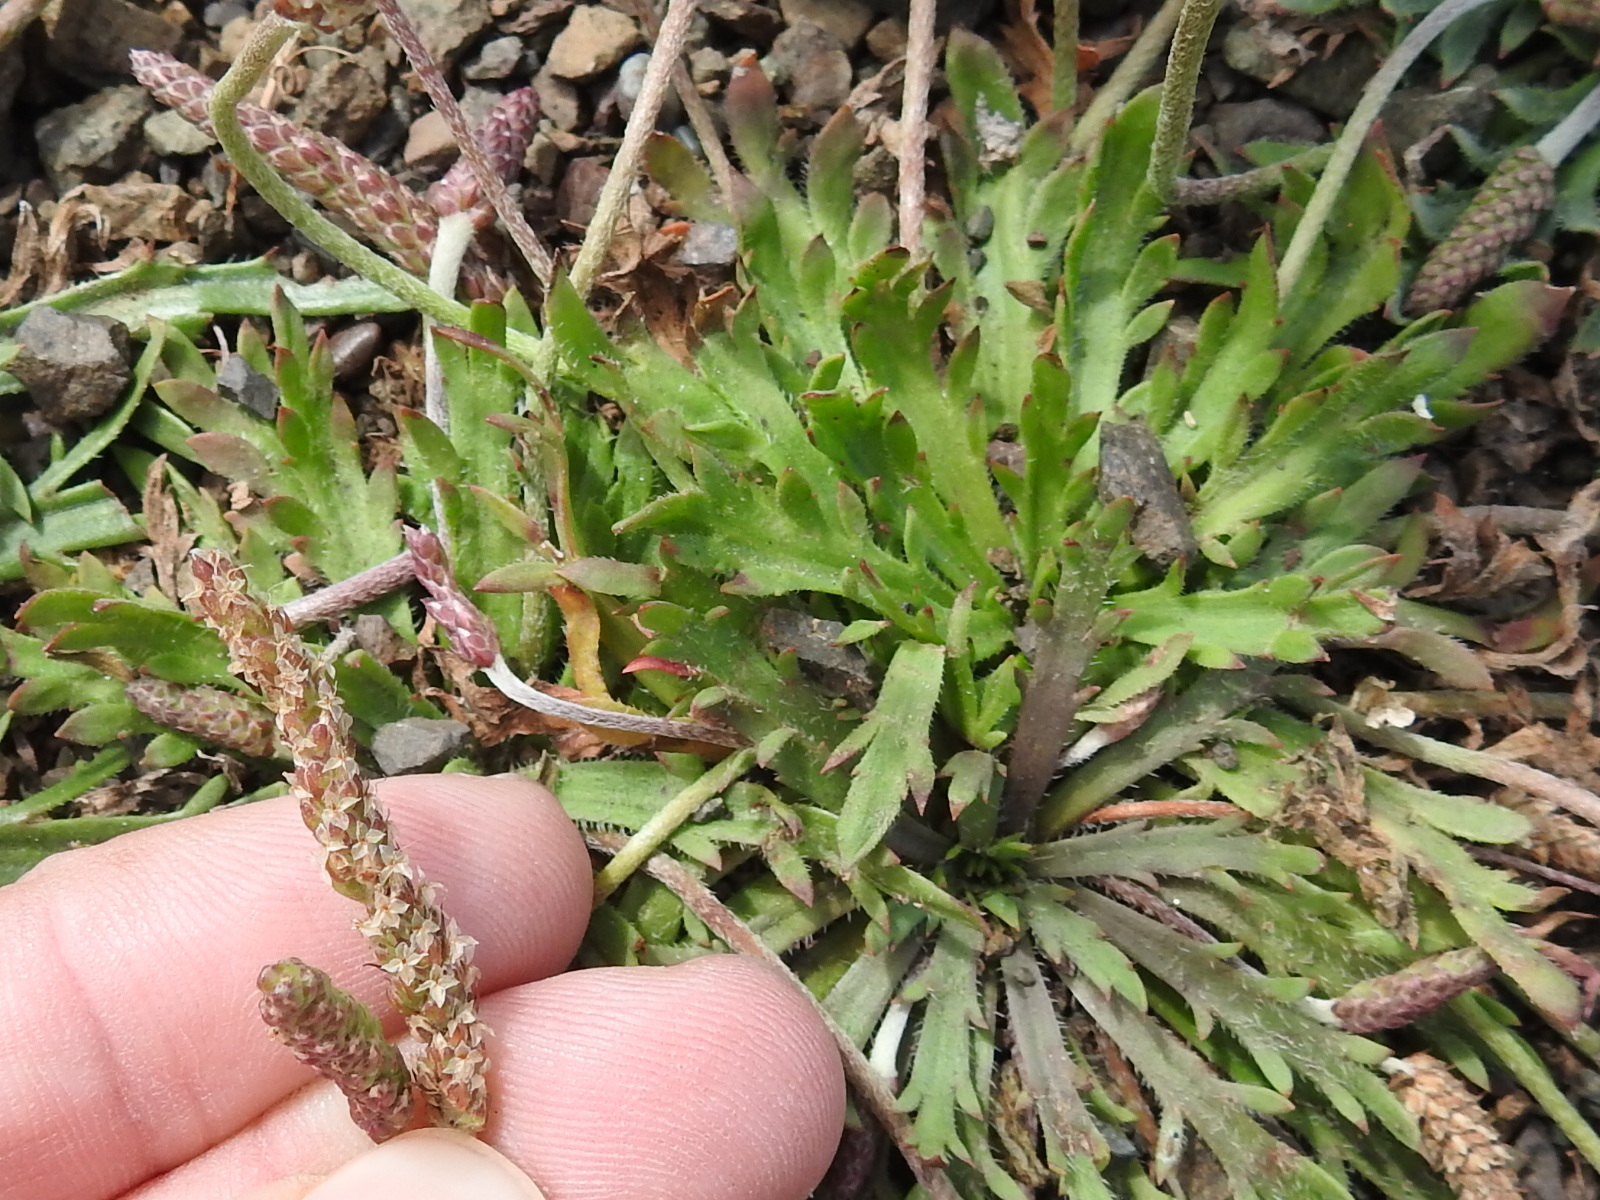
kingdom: Plantae
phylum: Tracheophyta
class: Magnoliopsida
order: Lamiales
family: Plantaginaceae
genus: Plantago
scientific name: Plantago coronopus
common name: Buck's-horn plantain
